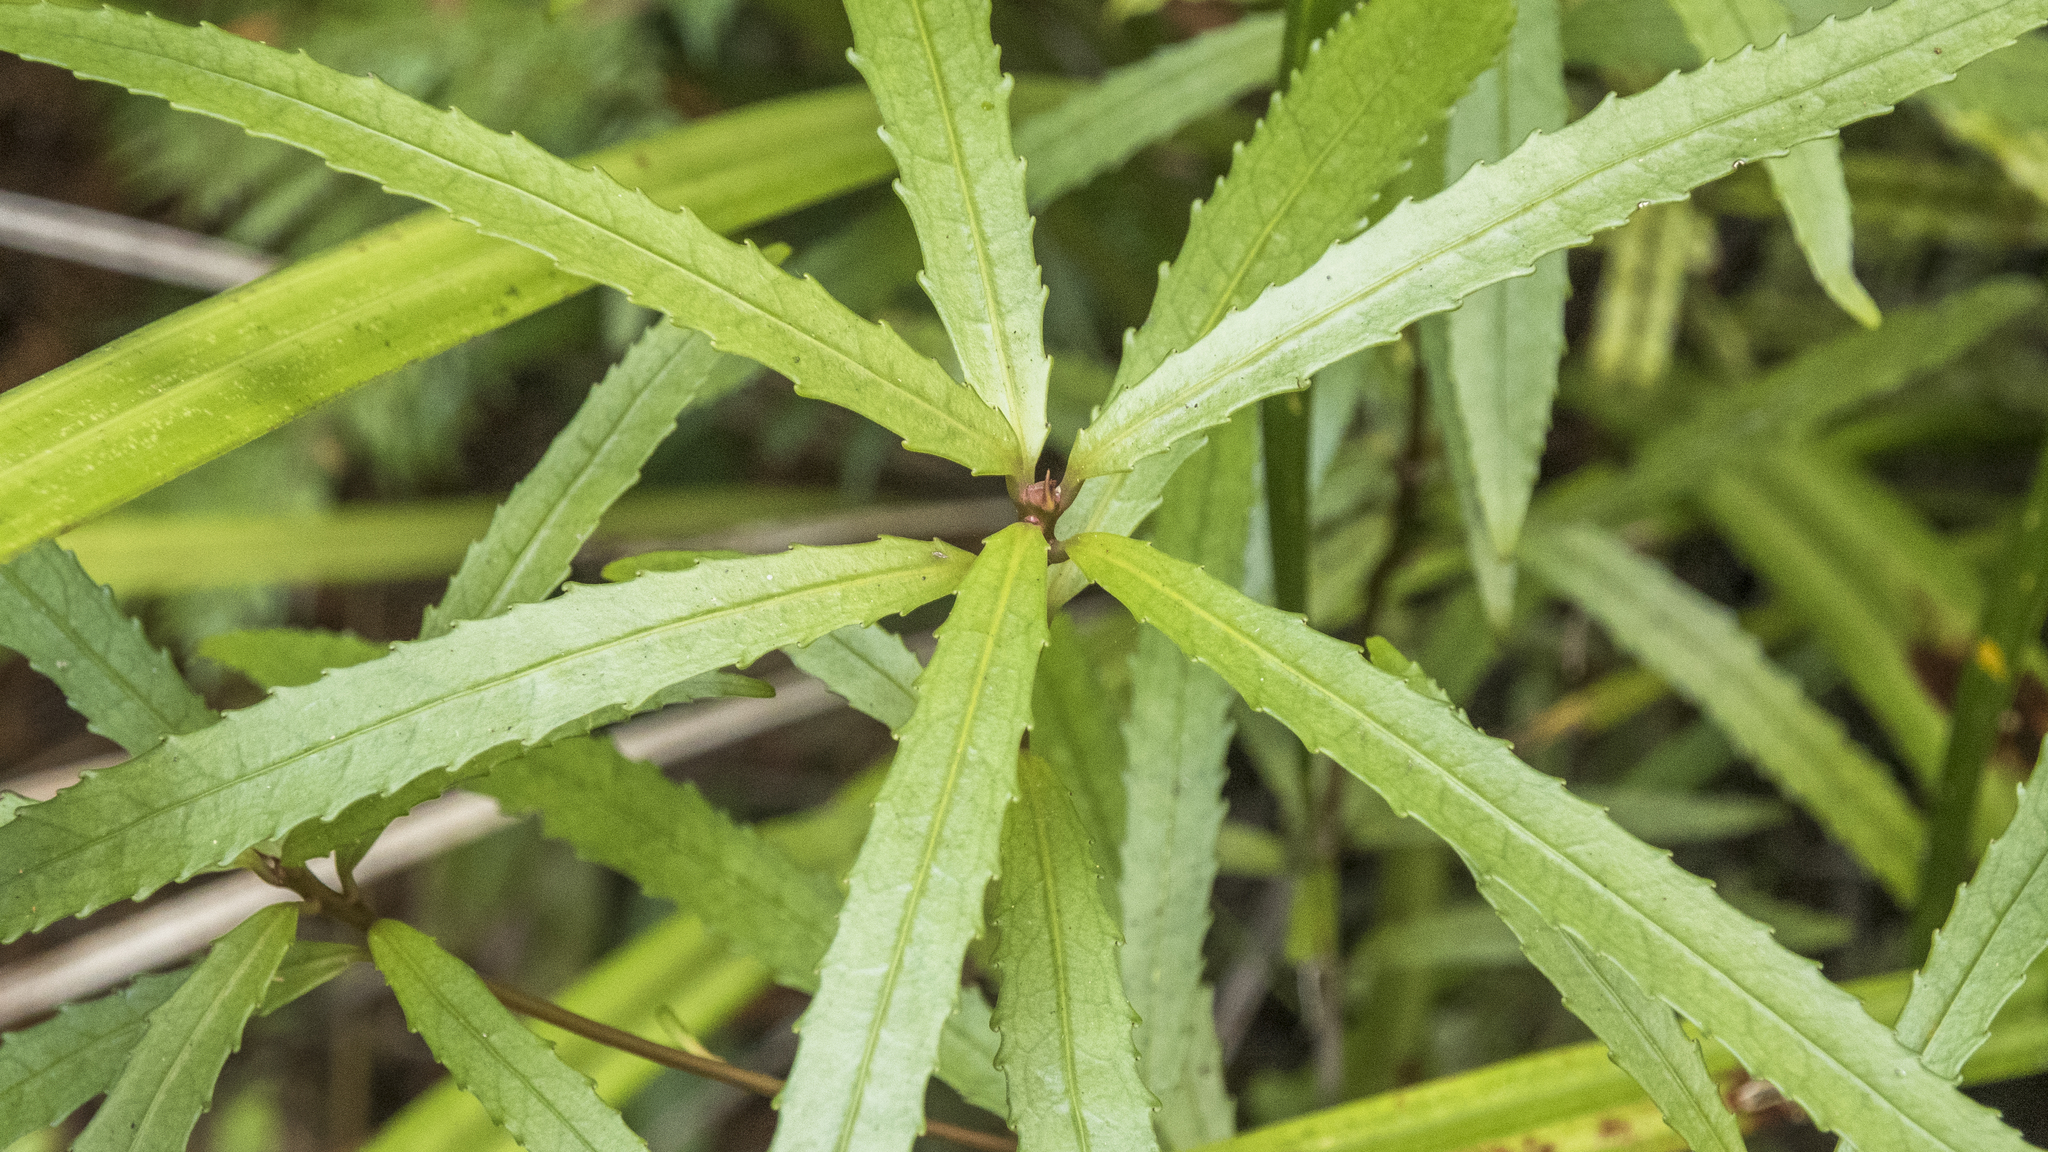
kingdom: Plantae
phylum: Tracheophyta
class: Magnoliopsida
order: Crossosomatales
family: Ixerbaceae
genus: Ixerba
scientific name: Ixerba brexioides
